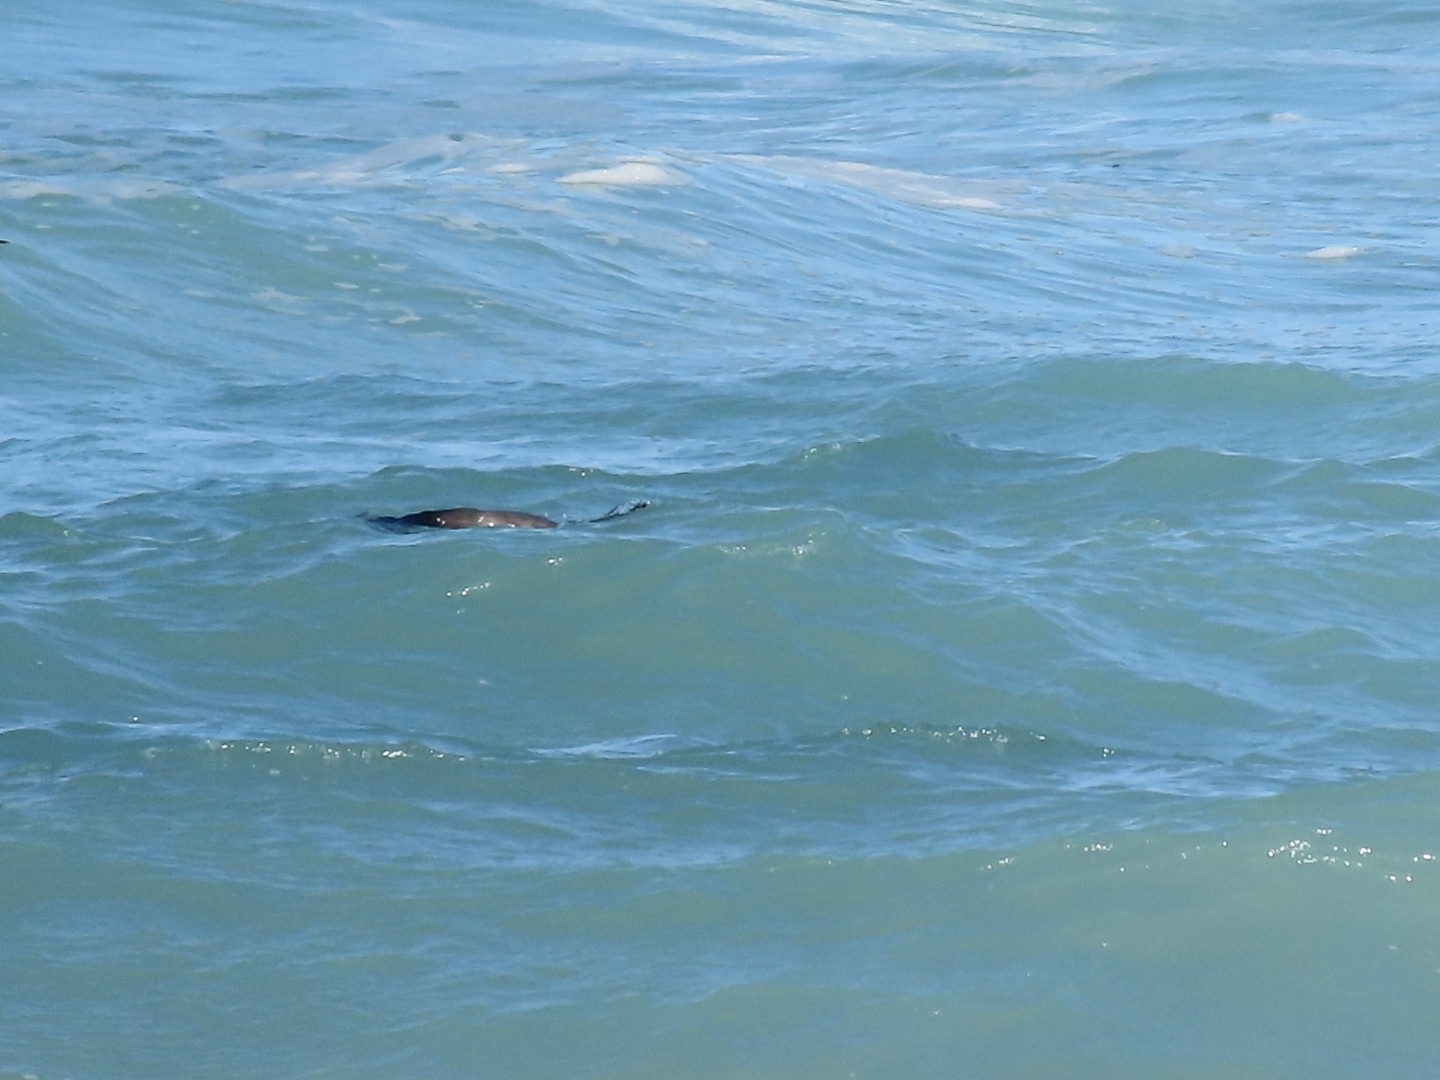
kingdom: Animalia
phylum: Chordata
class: Mammalia
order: Carnivora
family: Otariidae
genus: Arctocephalus
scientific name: Arctocephalus forsteri
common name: New zealand fur seal
